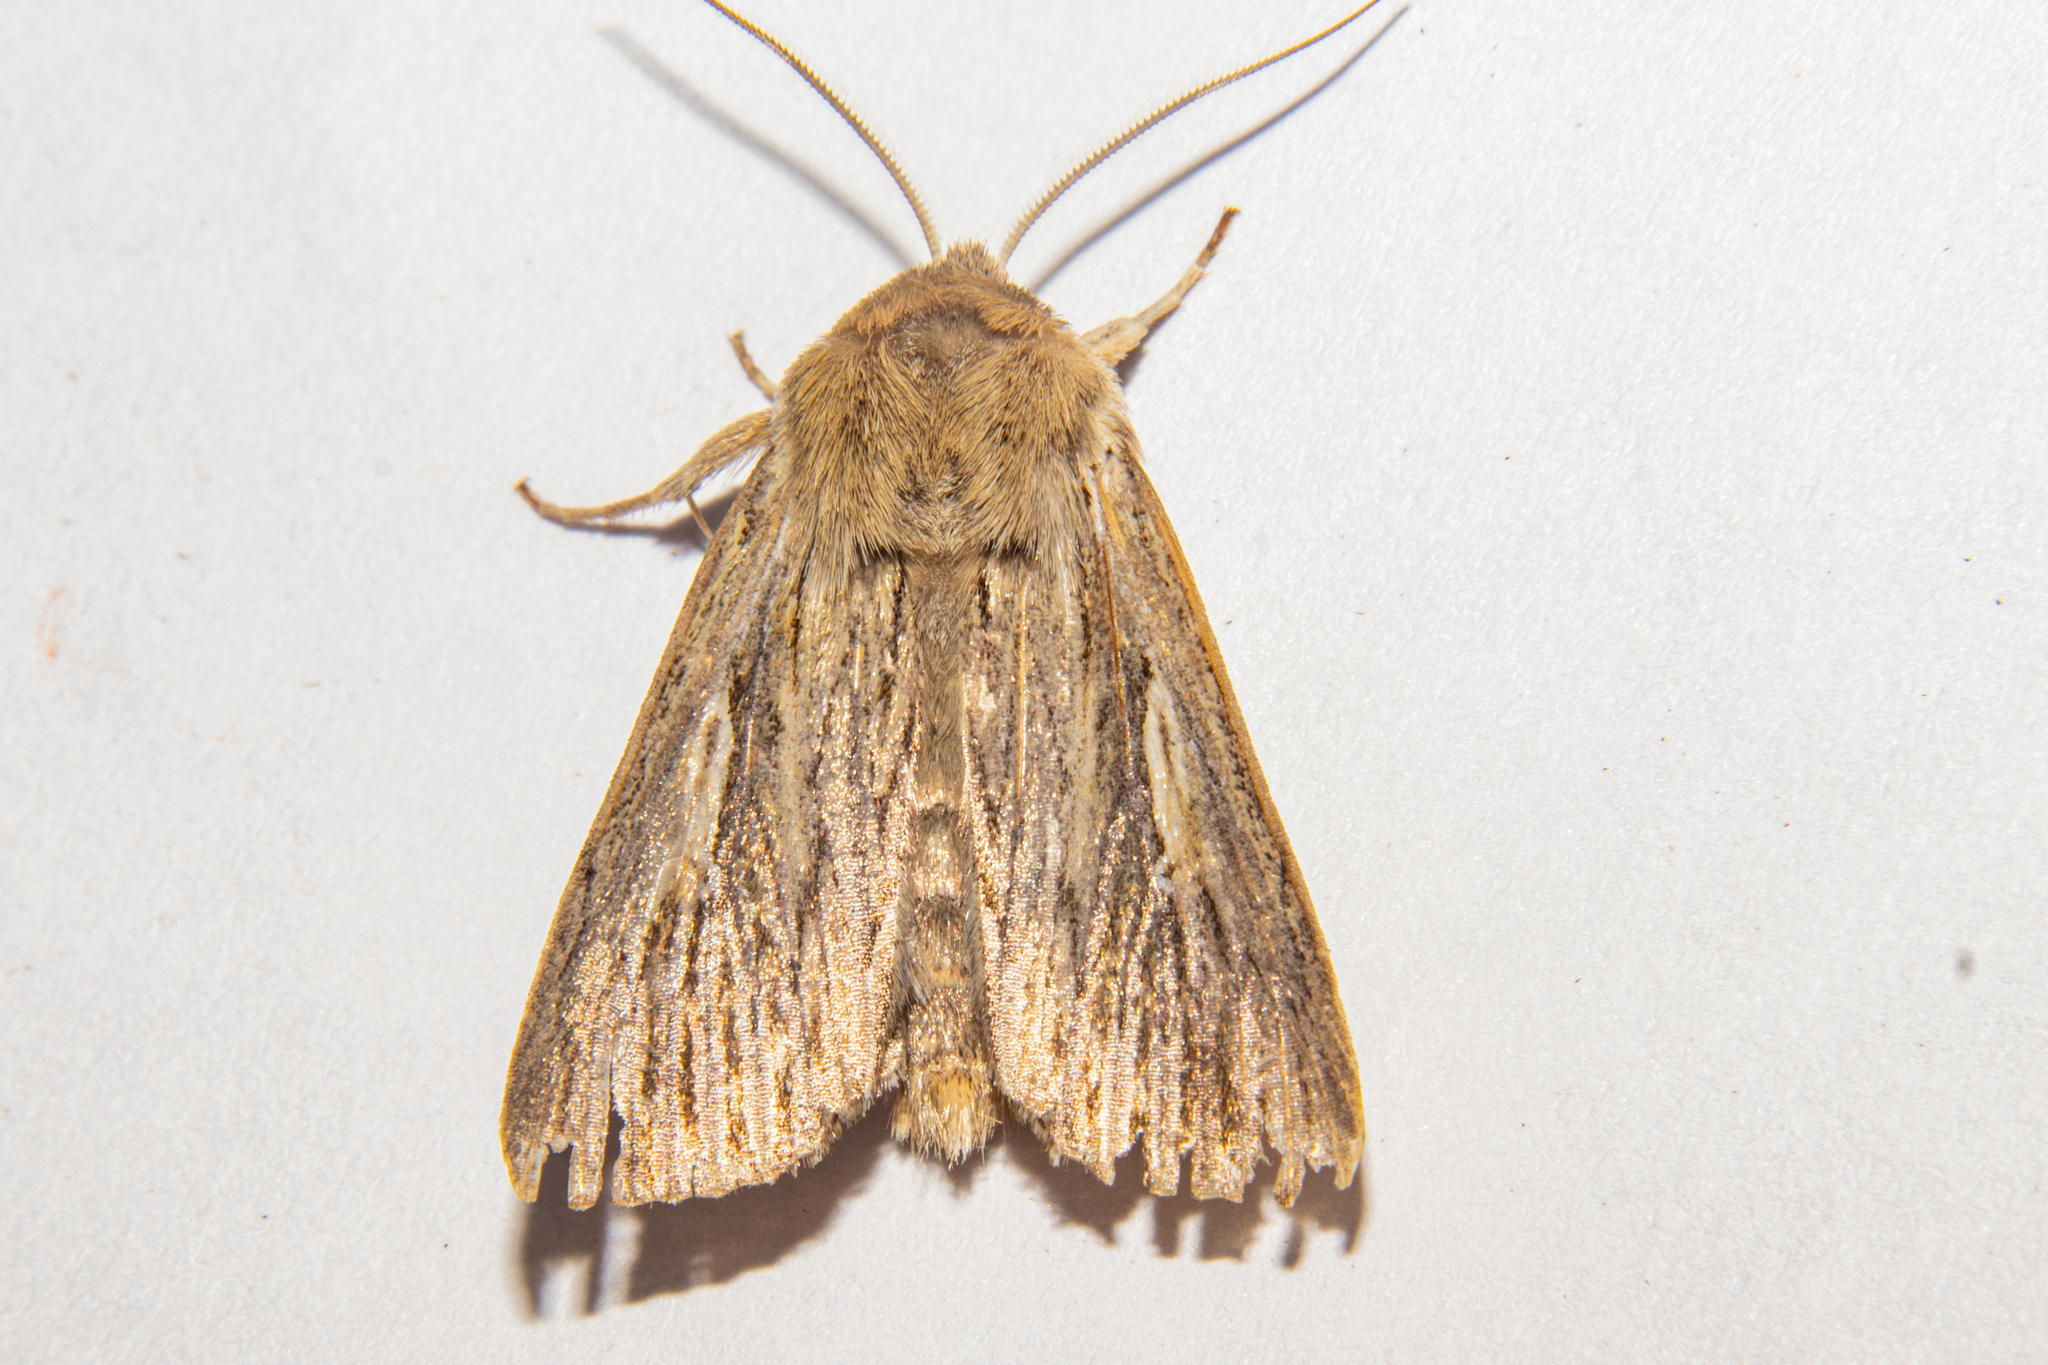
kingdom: Animalia
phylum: Arthropoda
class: Insecta
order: Lepidoptera
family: Noctuidae
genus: Persectania
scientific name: Persectania aversa
